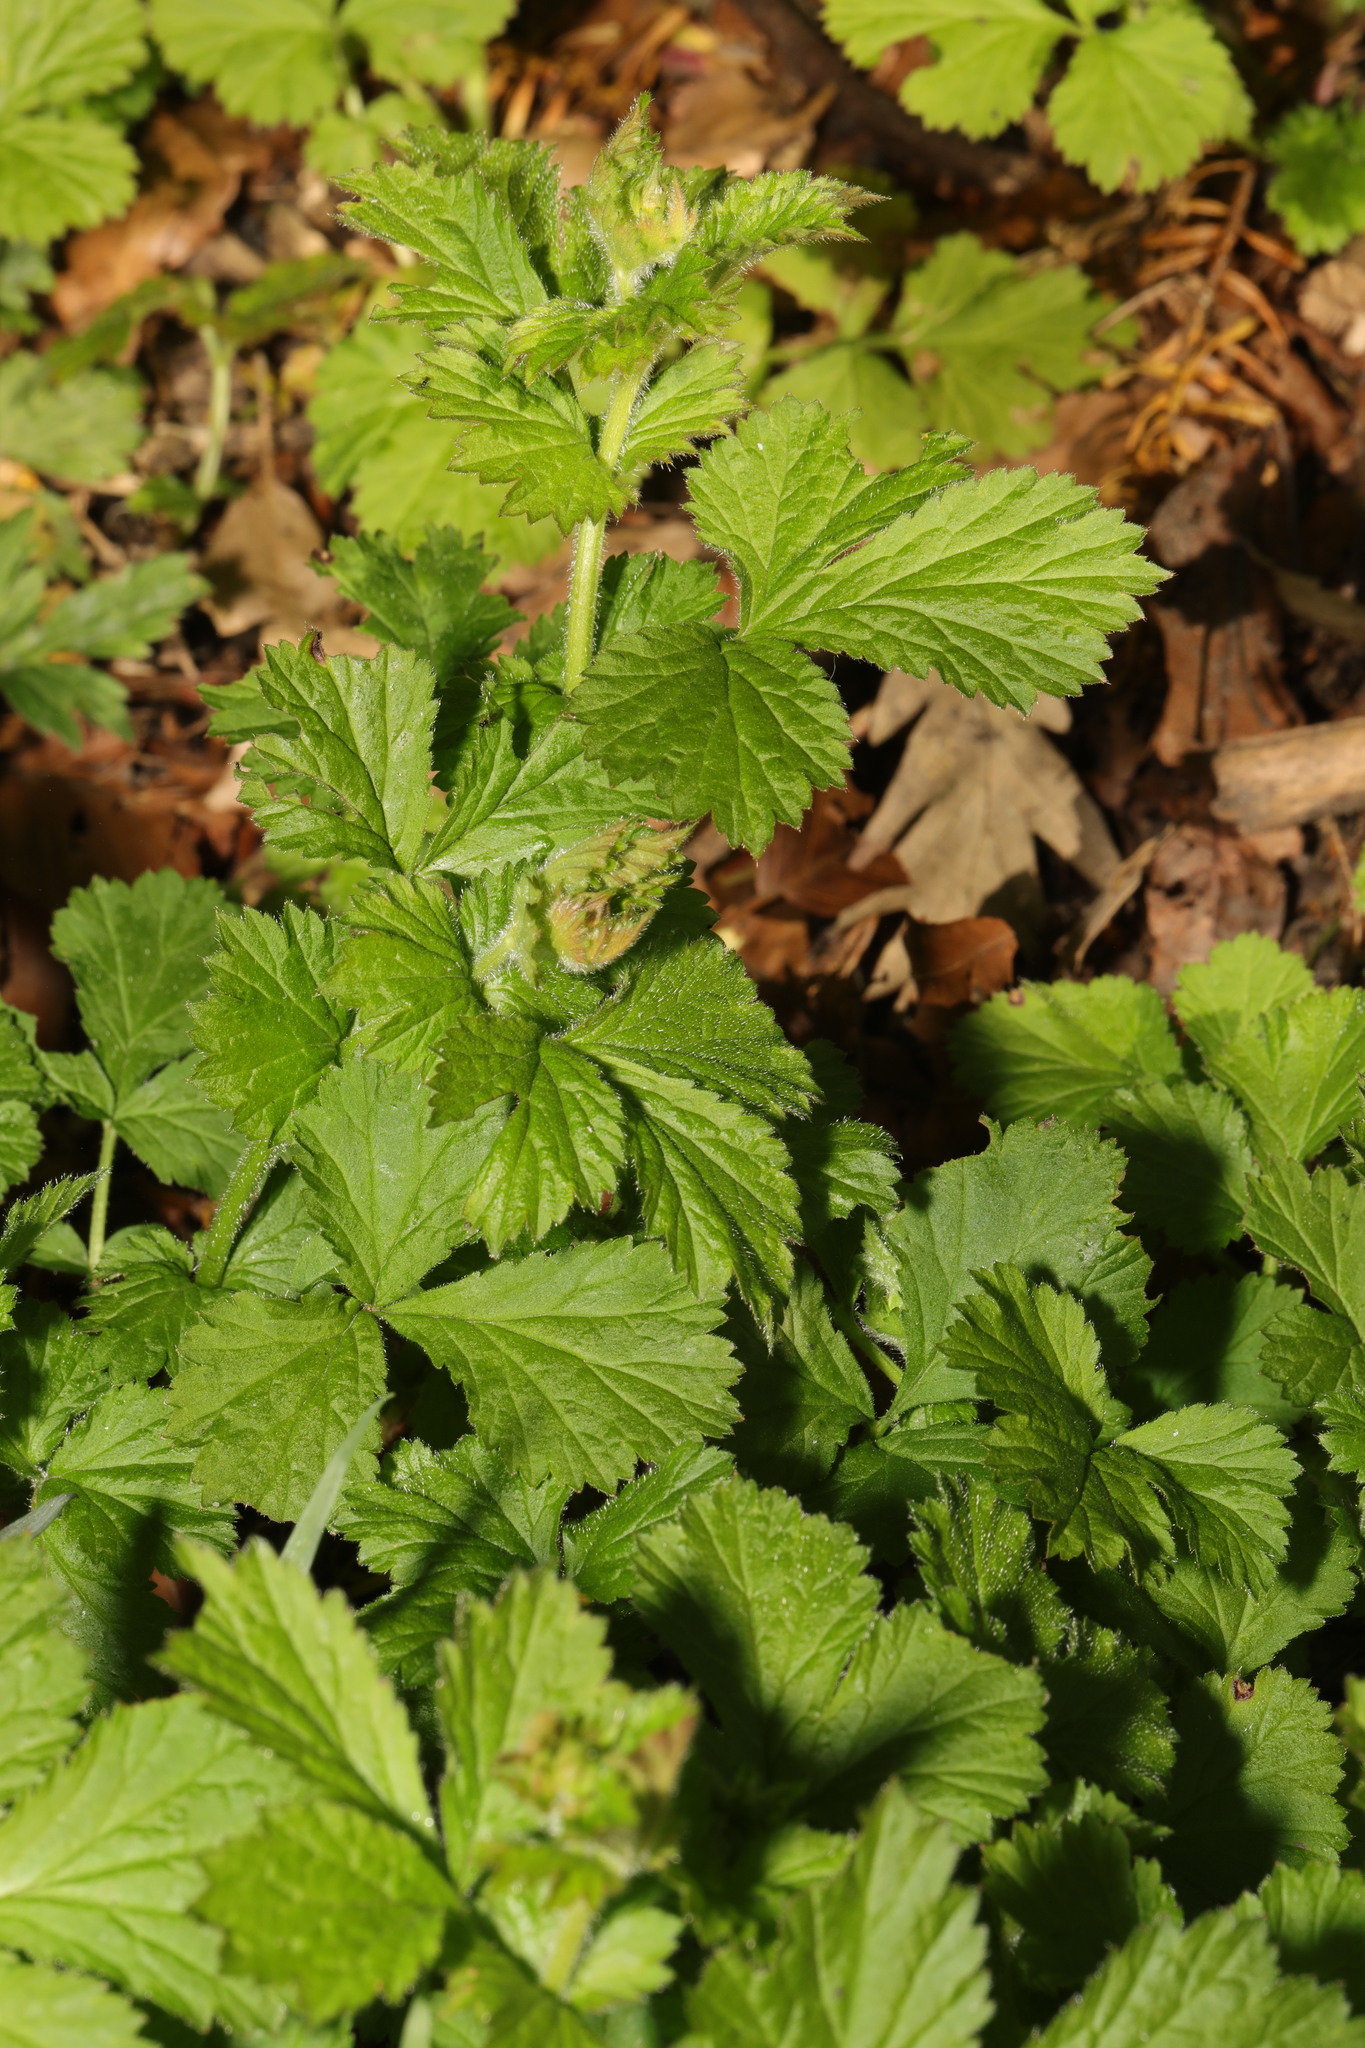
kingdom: Plantae
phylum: Tracheophyta
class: Magnoliopsida
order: Rosales
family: Rosaceae
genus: Geum
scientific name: Geum urbanum
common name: Wood avens
